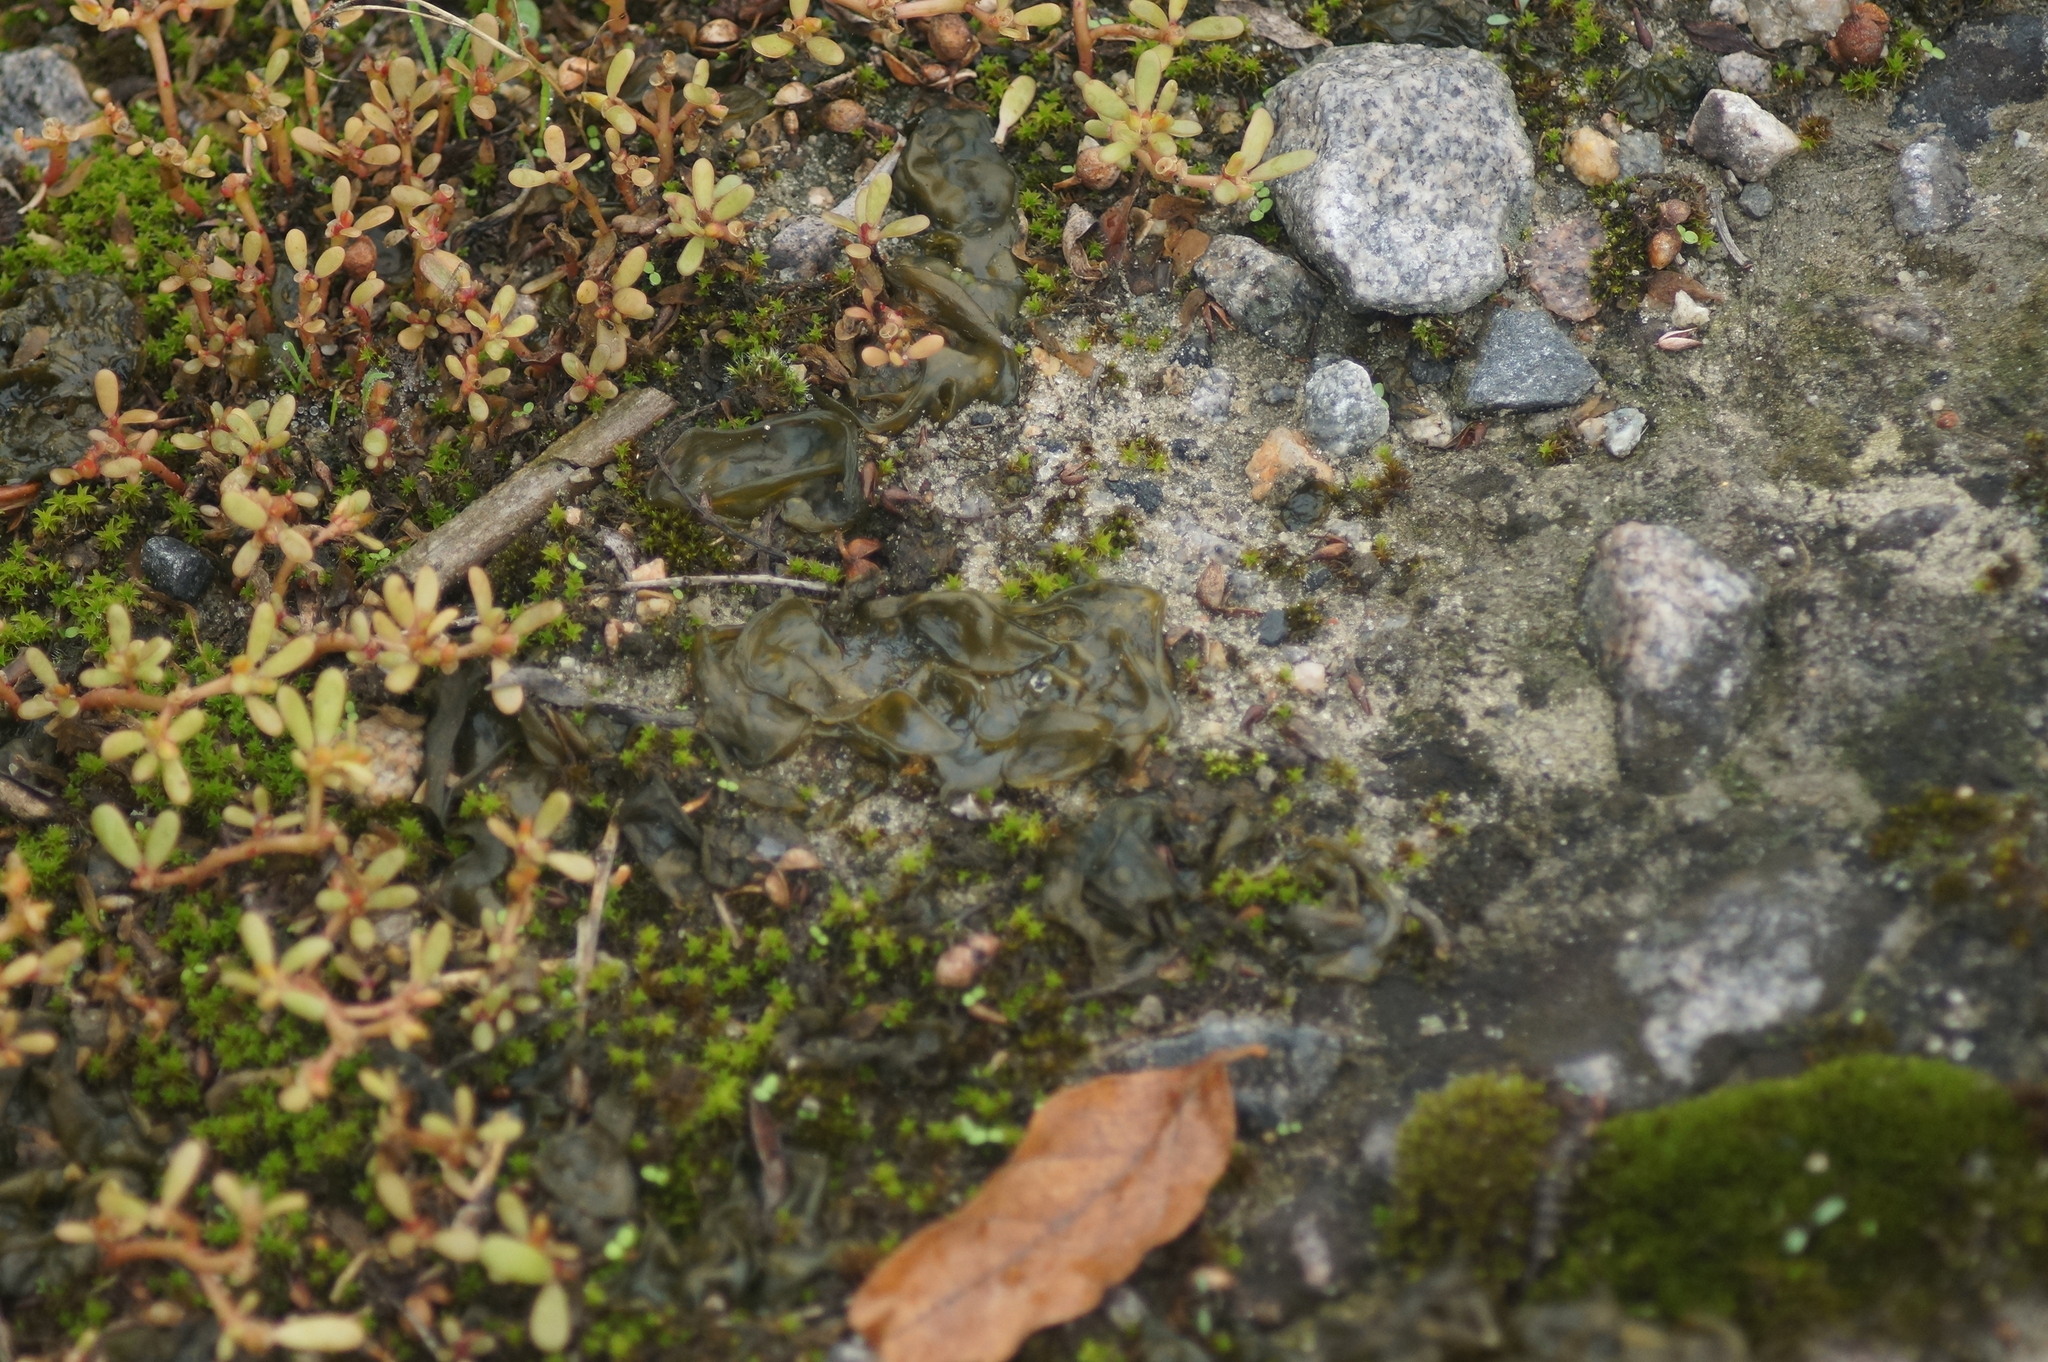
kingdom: Bacteria
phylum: Cyanobacteria
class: Cyanobacteriia
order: Cyanobacteriales
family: Nostocaceae
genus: Nostoc
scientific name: Nostoc commune
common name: Star jelly
